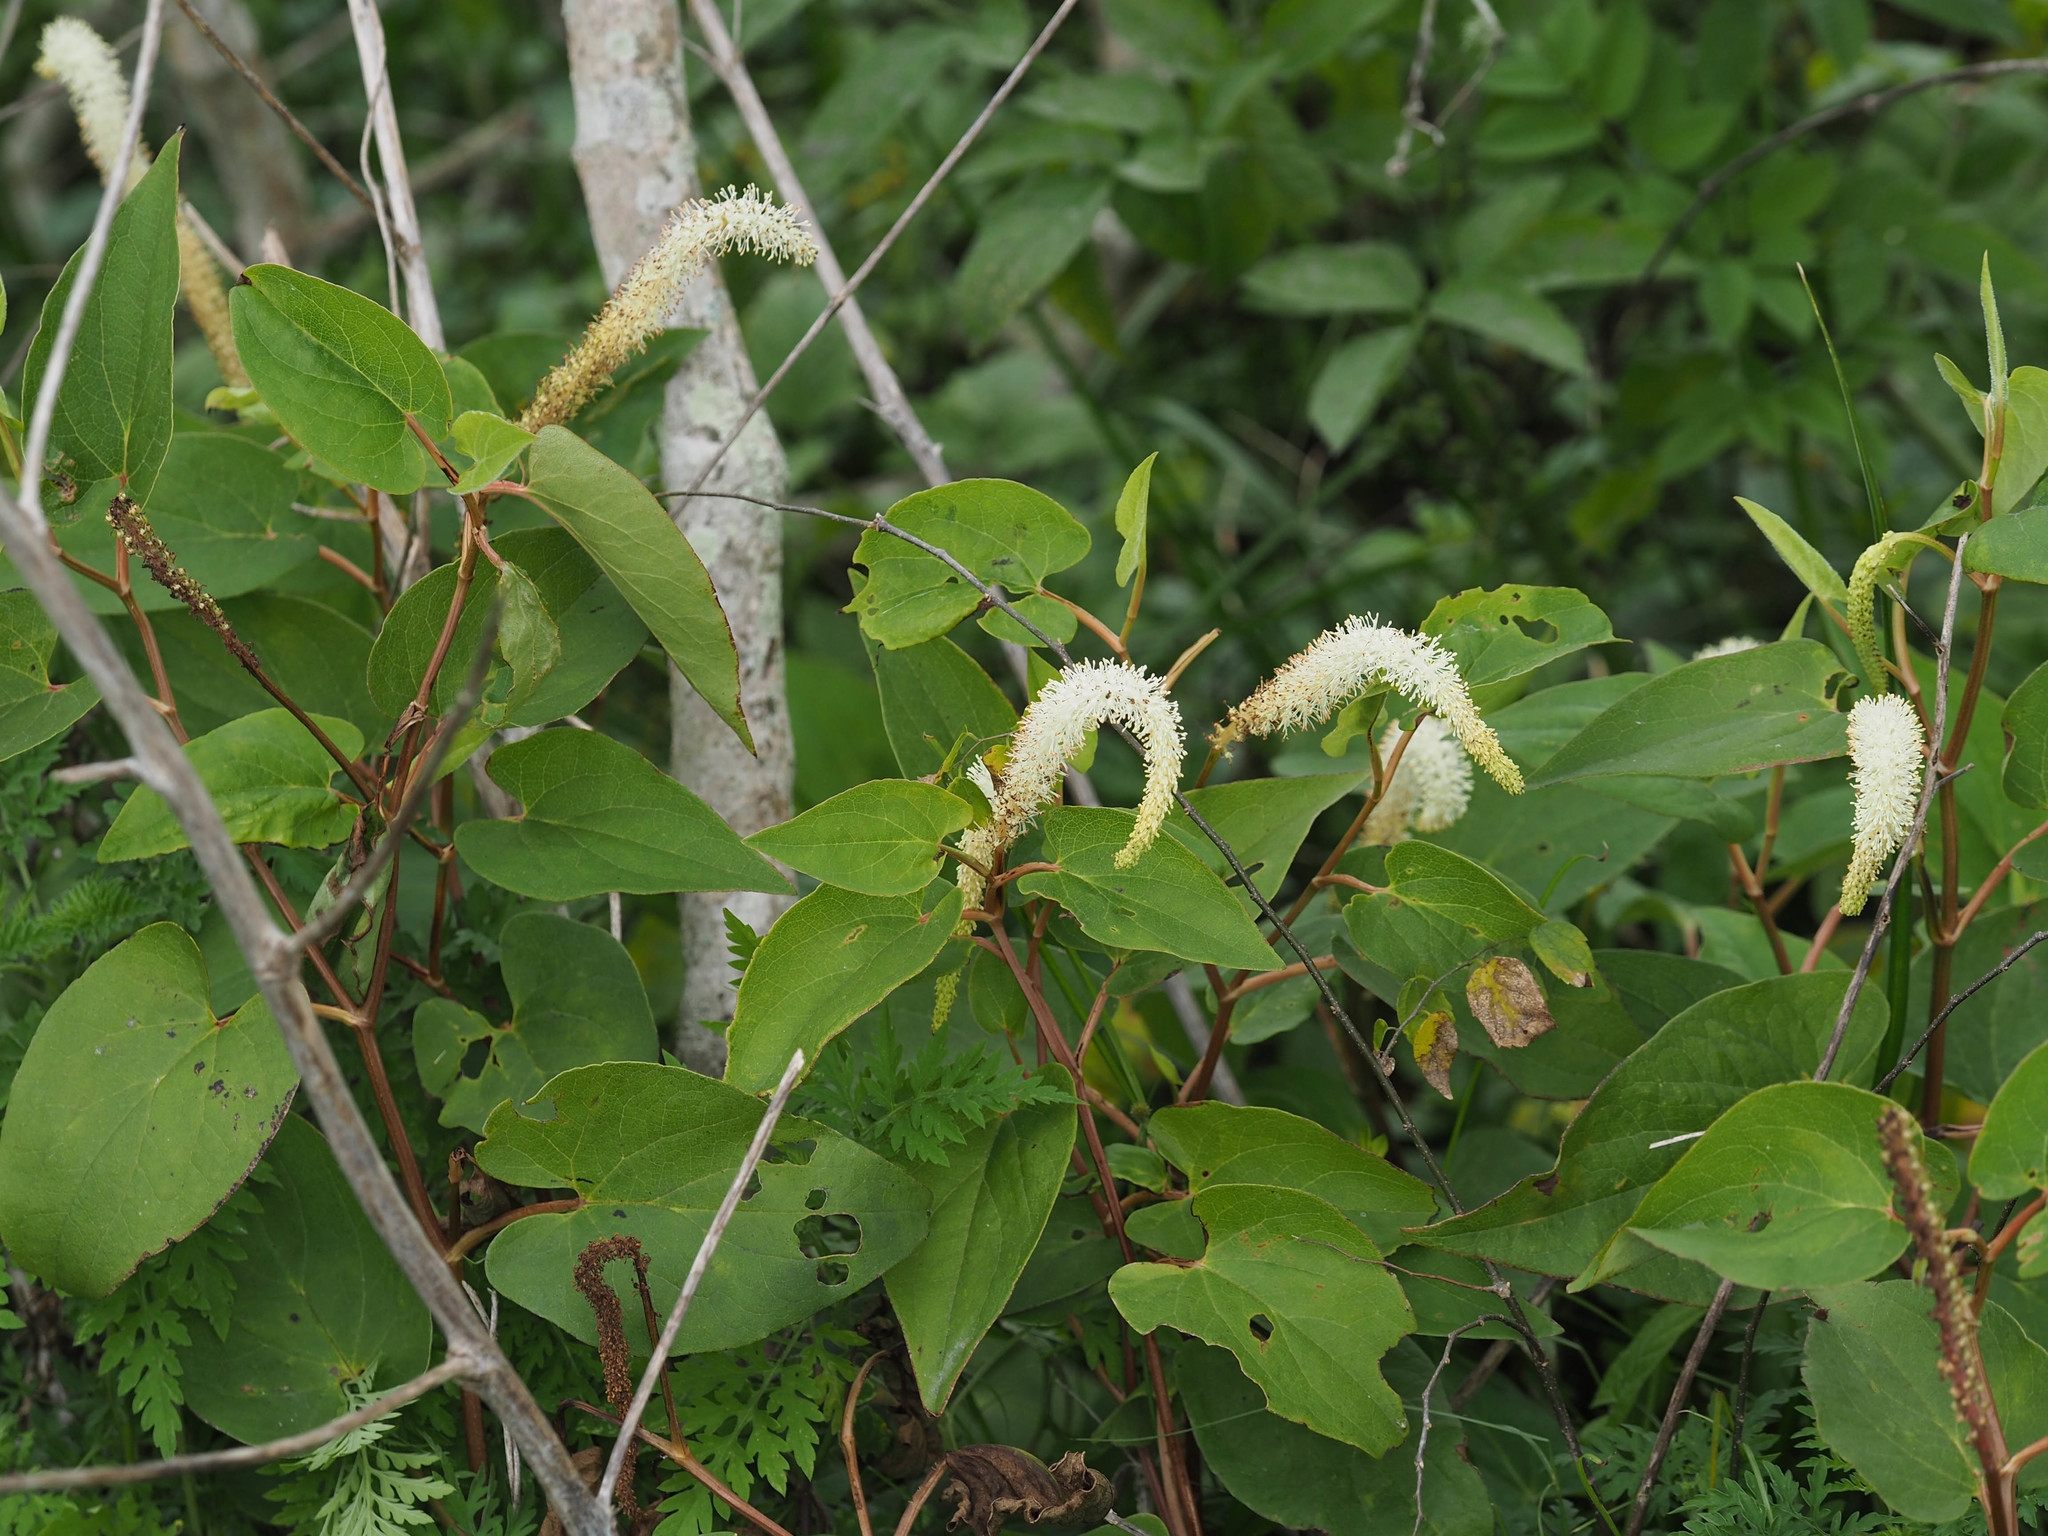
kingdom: Plantae
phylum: Tracheophyta
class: Magnoliopsida
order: Piperales
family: Saururaceae
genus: Saururus
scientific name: Saururus cernuus
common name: Lizard's-tail
